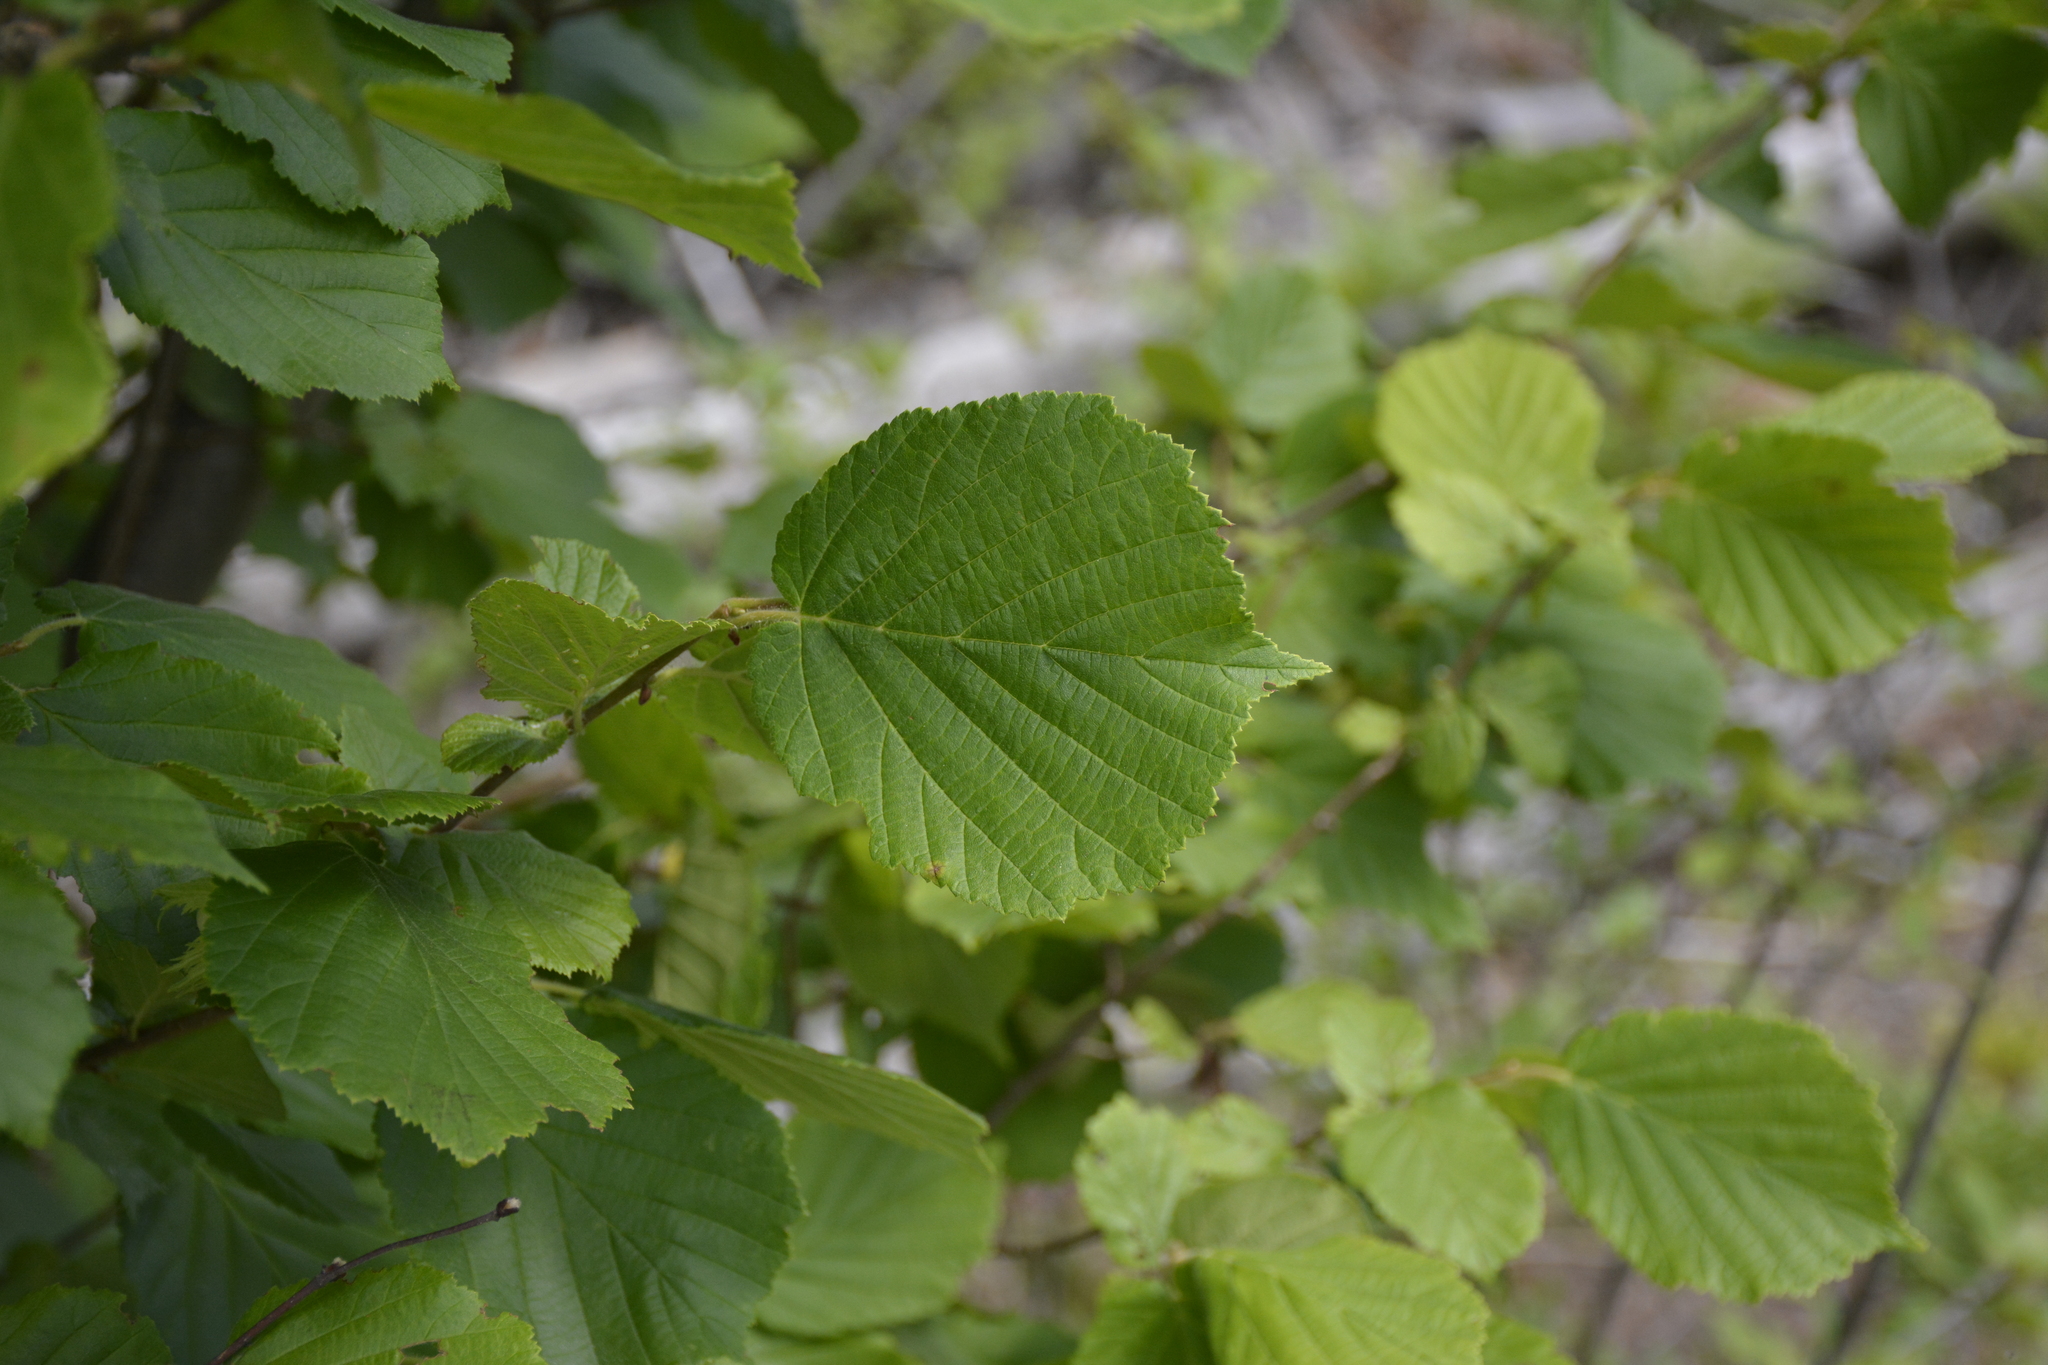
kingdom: Plantae
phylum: Tracheophyta
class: Magnoliopsida
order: Fagales
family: Betulaceae
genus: Corylus
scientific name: Corylus avellana
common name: European hazel
